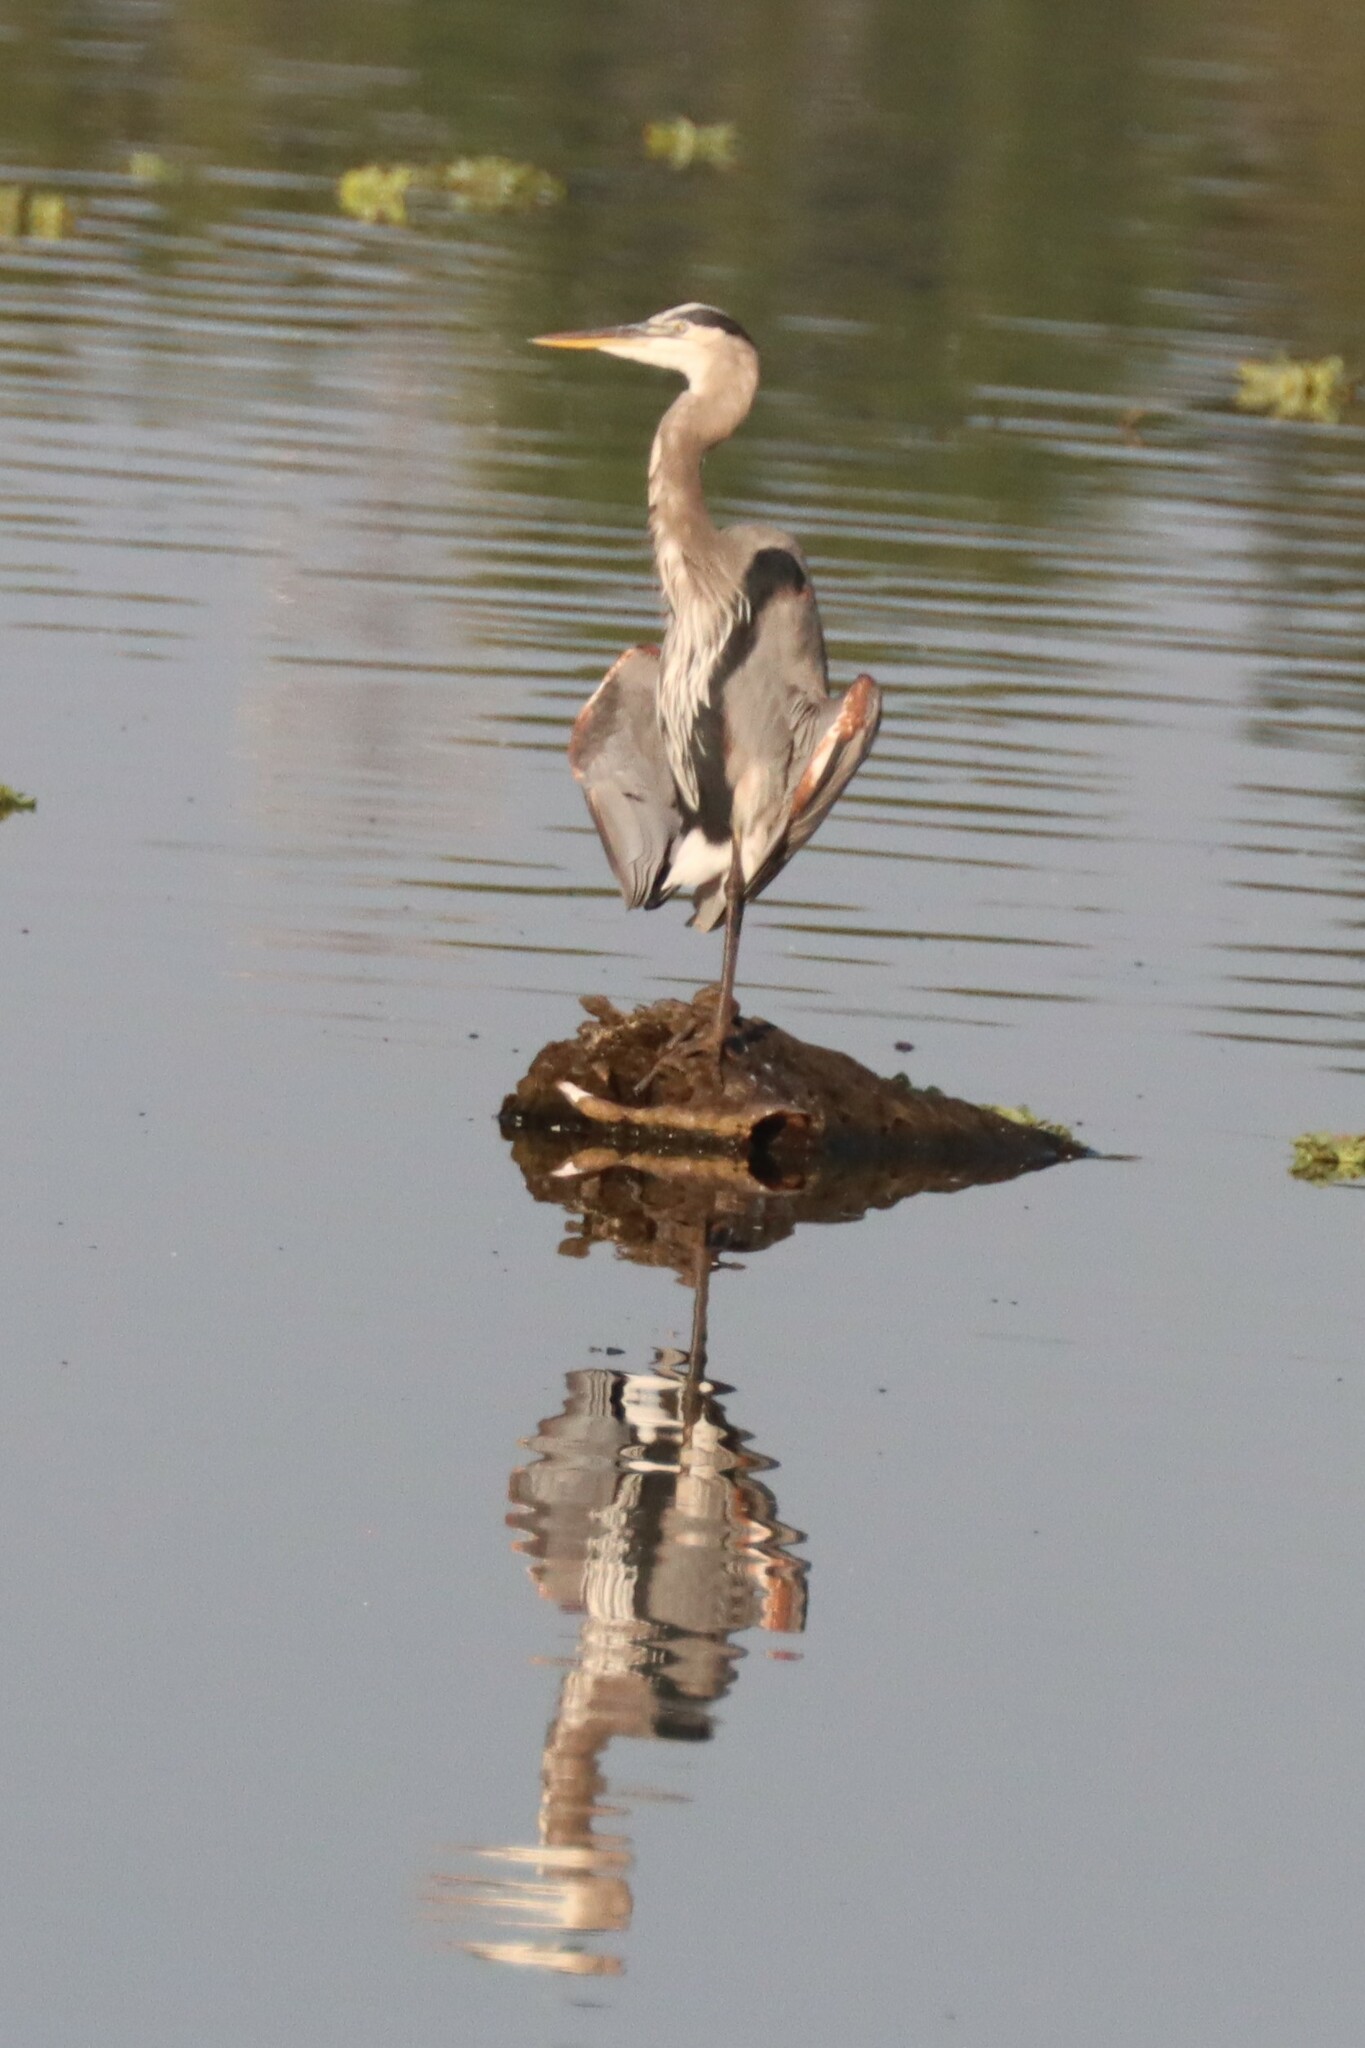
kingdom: Animalia
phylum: Chordata
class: Aves
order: Pelecaniformes
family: Ardeidae
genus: Ardea
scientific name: Ardea herodias
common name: Great blue heron
